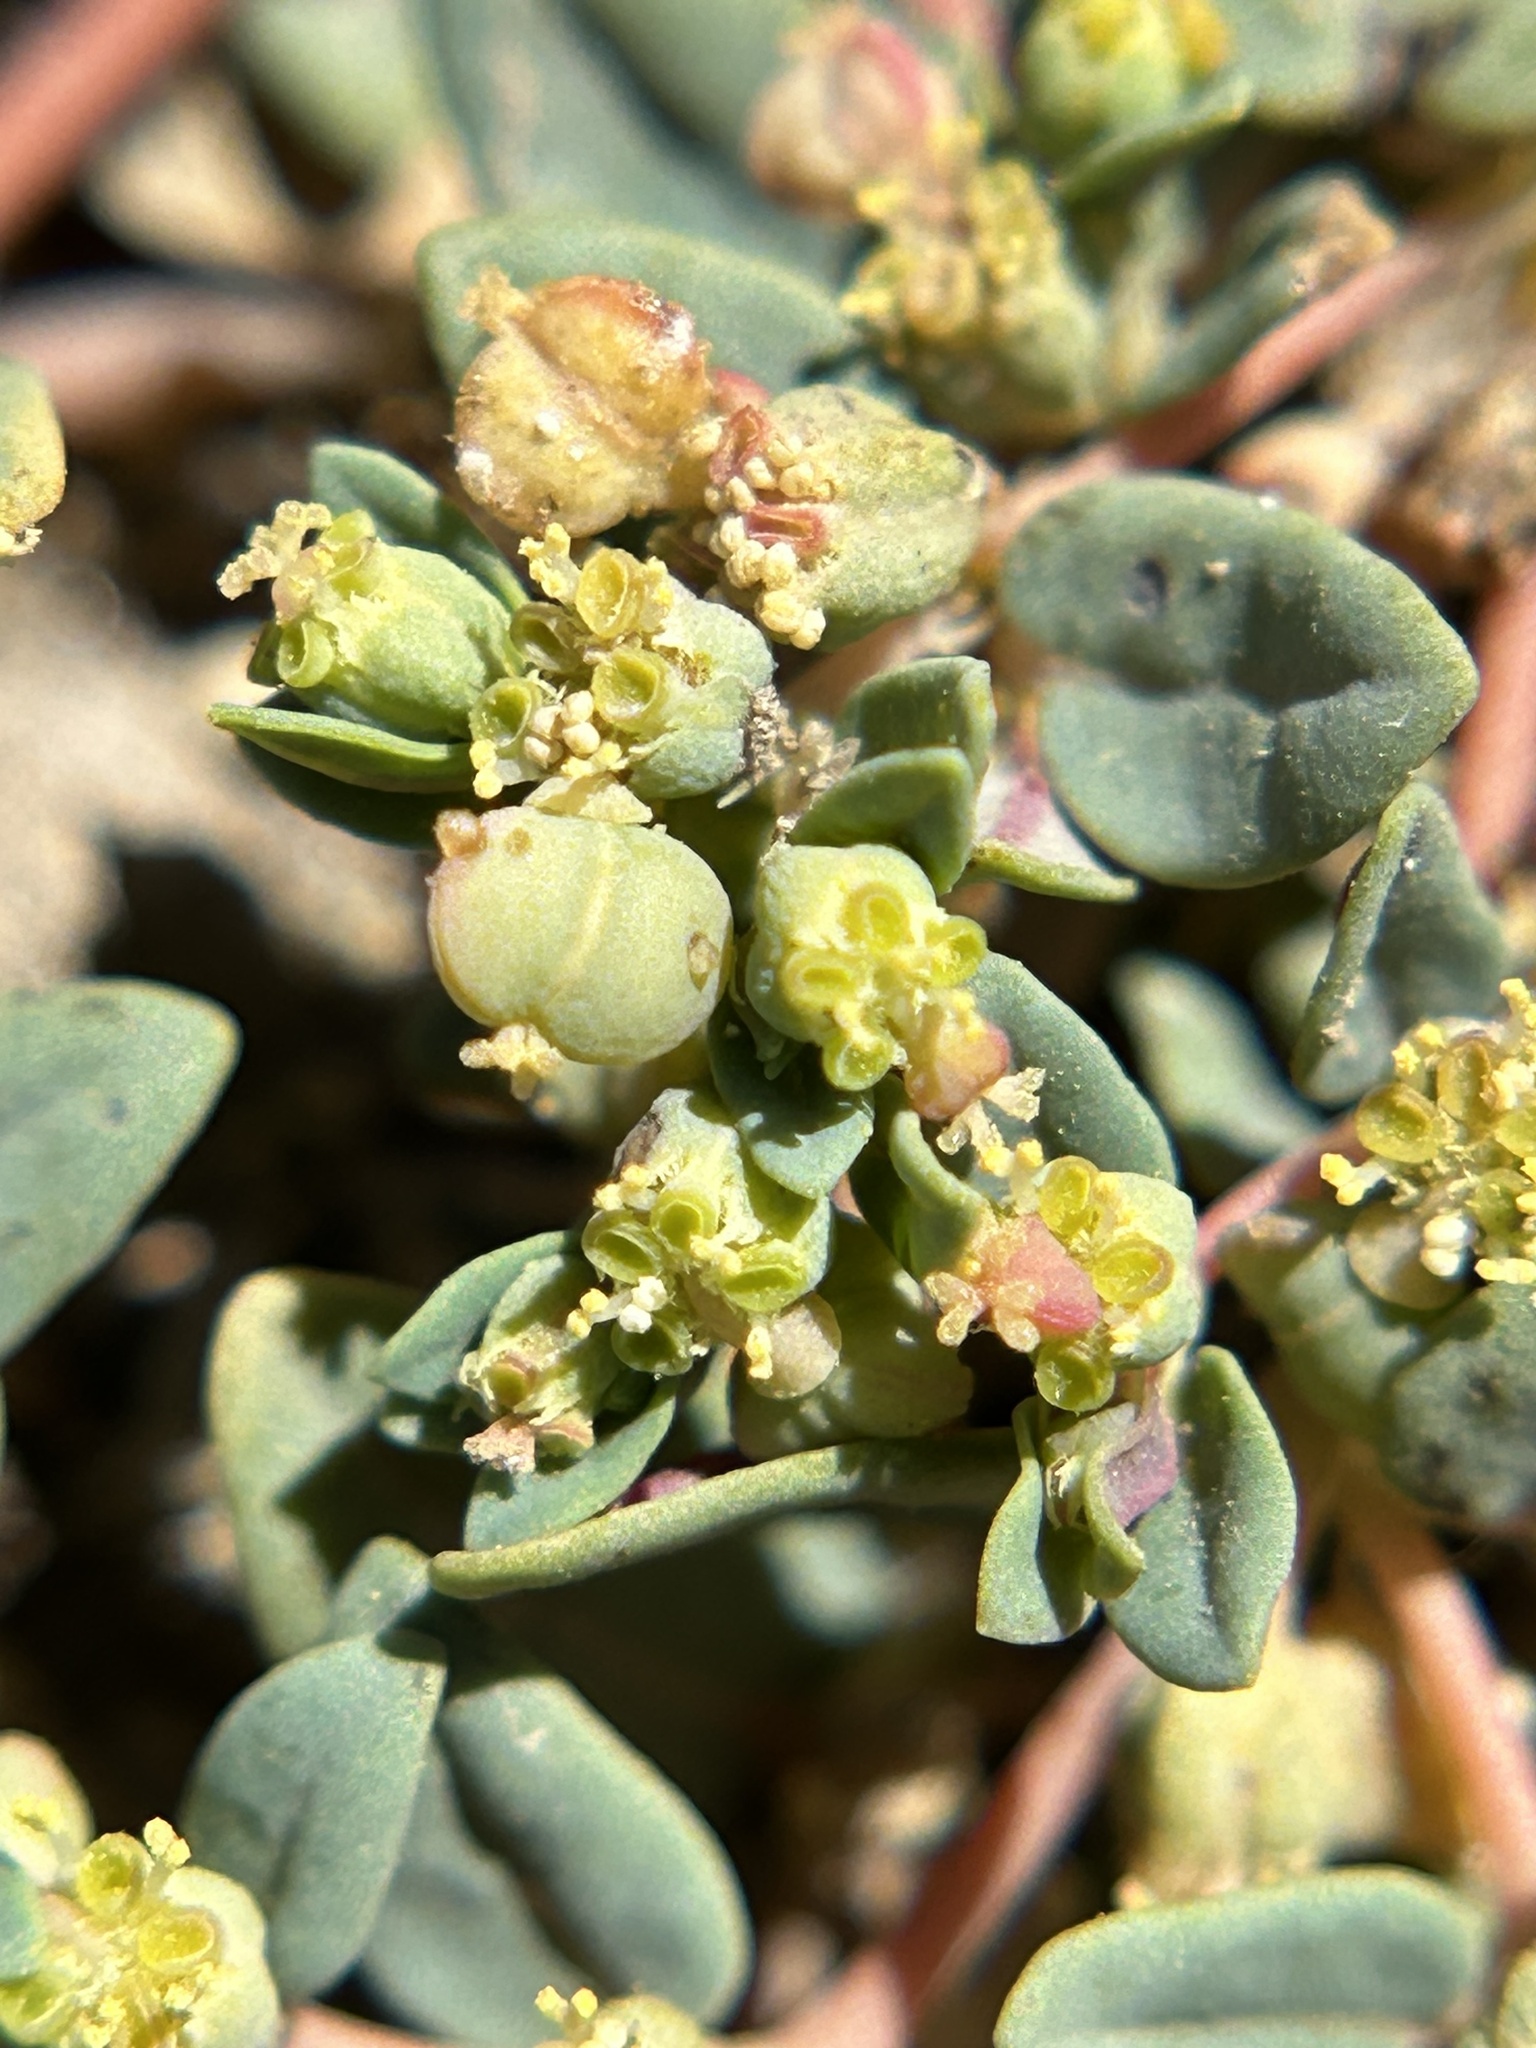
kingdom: Plantae
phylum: Tracheophyta
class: Magnoliopsida
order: Malpighiales
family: Euphorbiaceae
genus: Euphorbia
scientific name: Euphorbia ocellata
